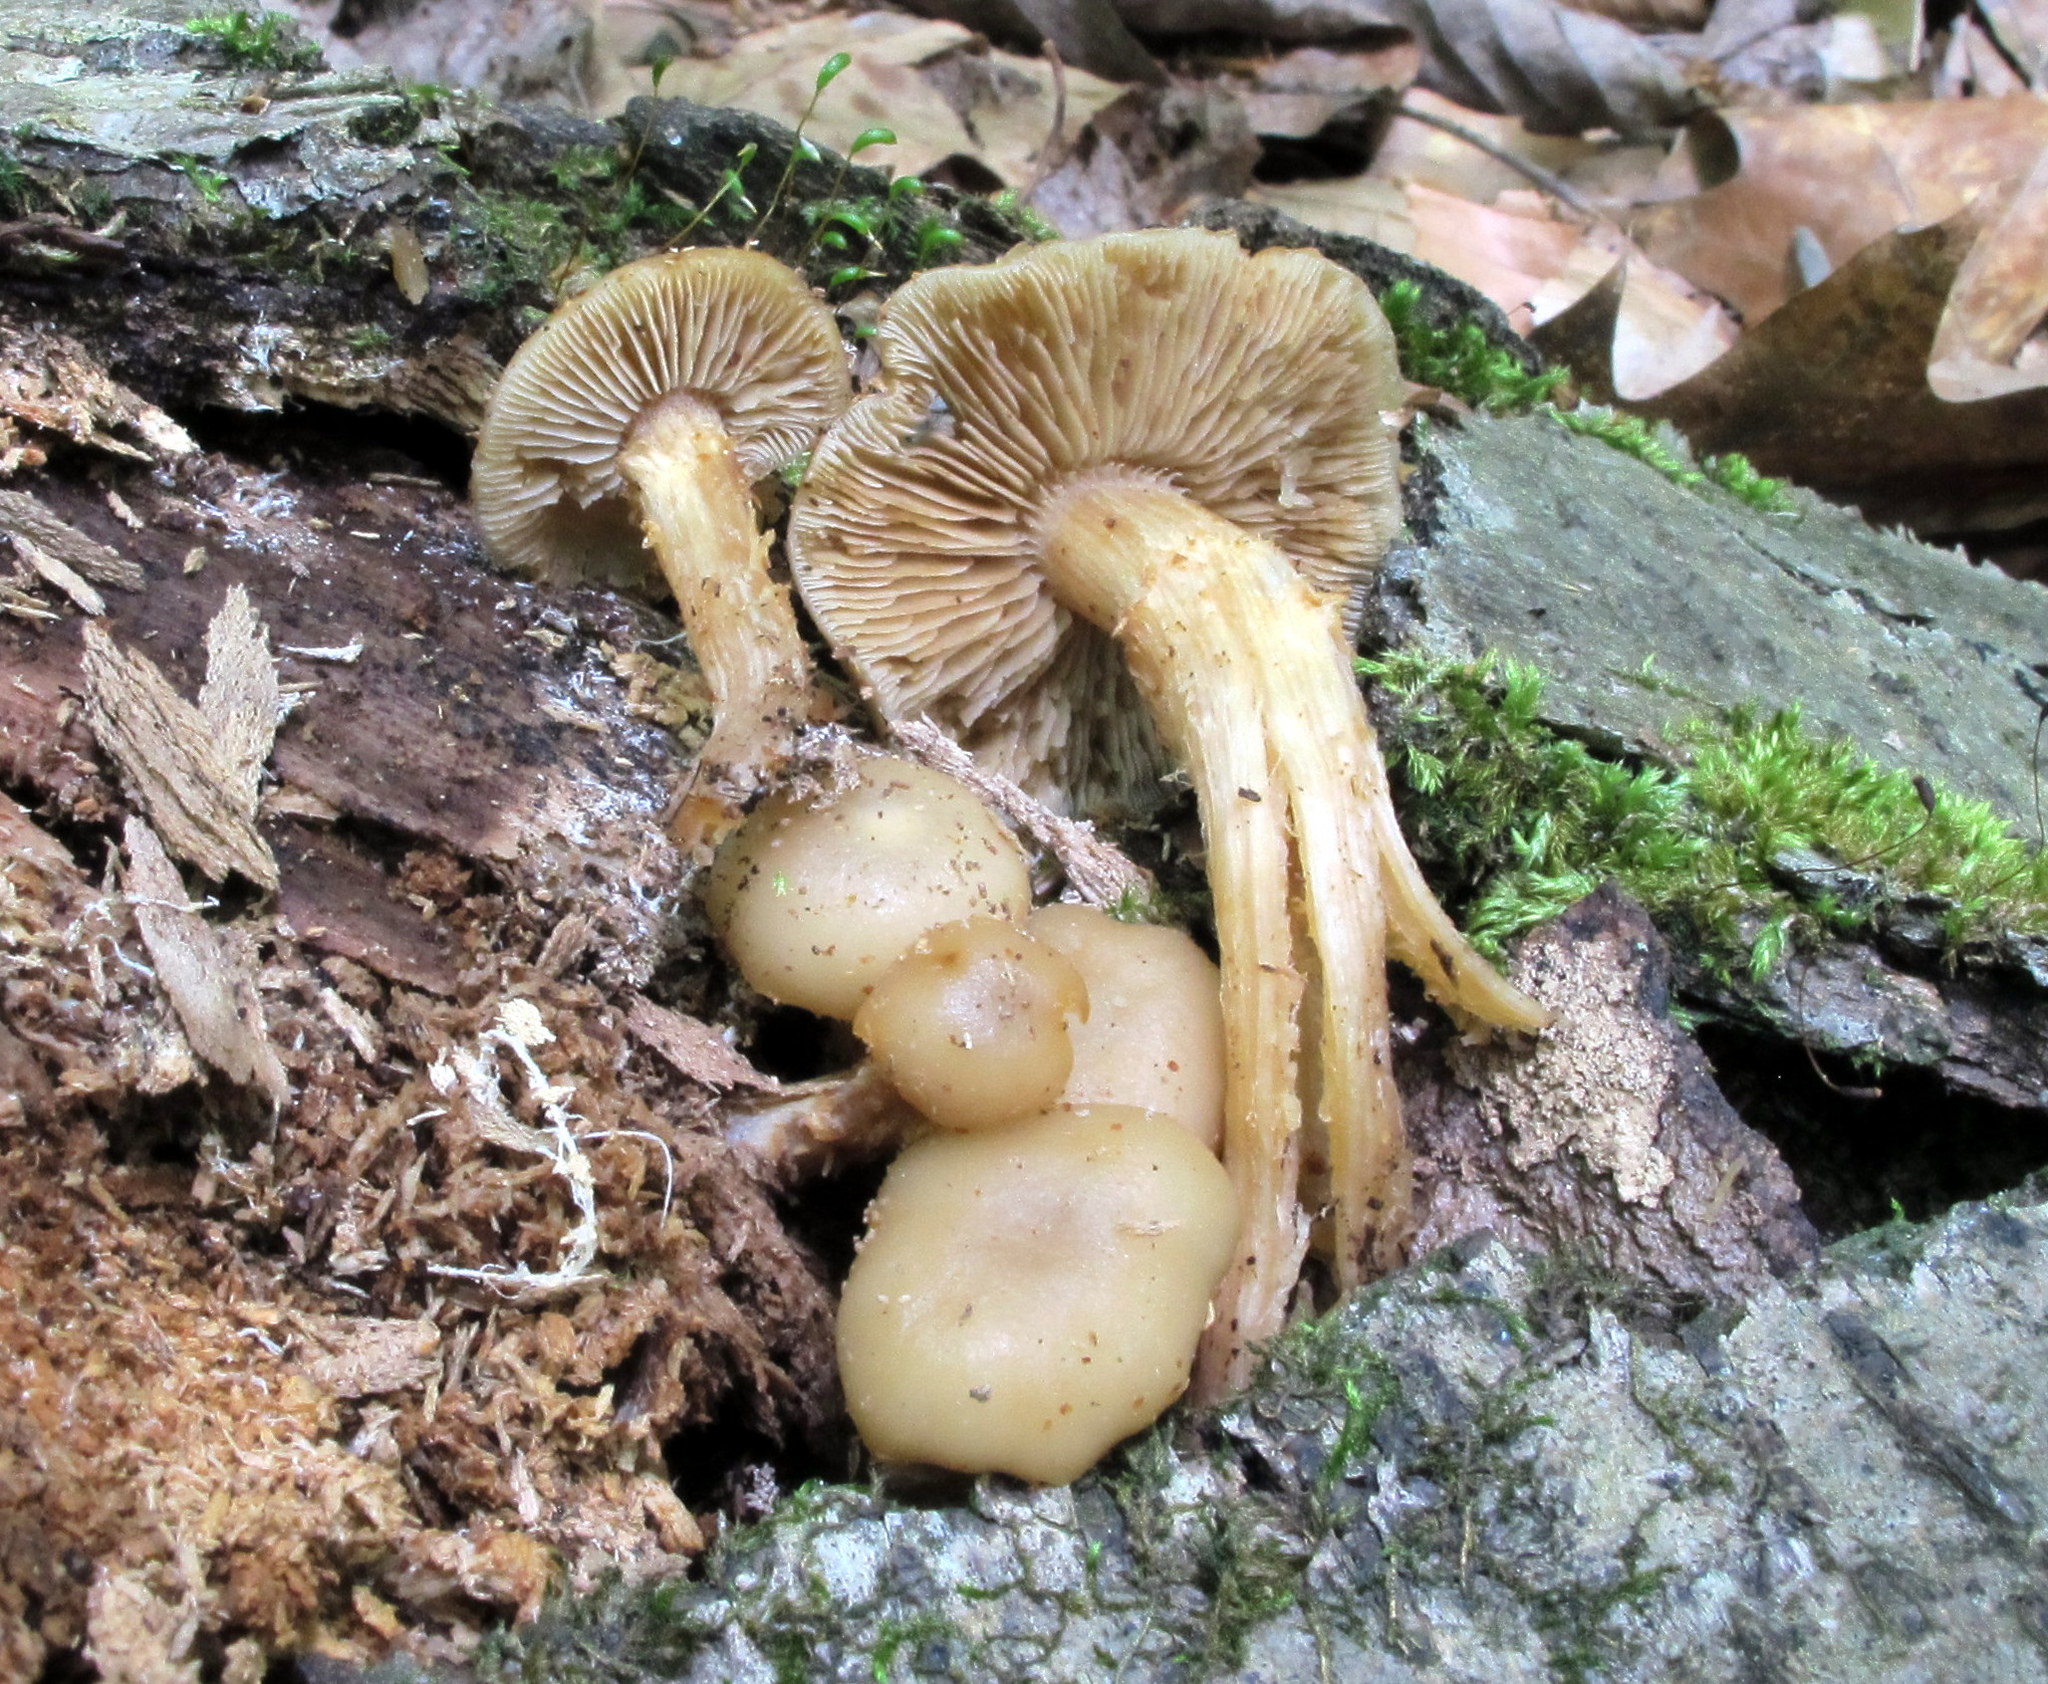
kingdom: Fungi
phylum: Basidiomycota
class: Agaricomycetes
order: Agaricales
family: Strophariaceae
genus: Kuehneromyces
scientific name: Kuehneromyces marginellus
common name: Sheathed woodtuft
